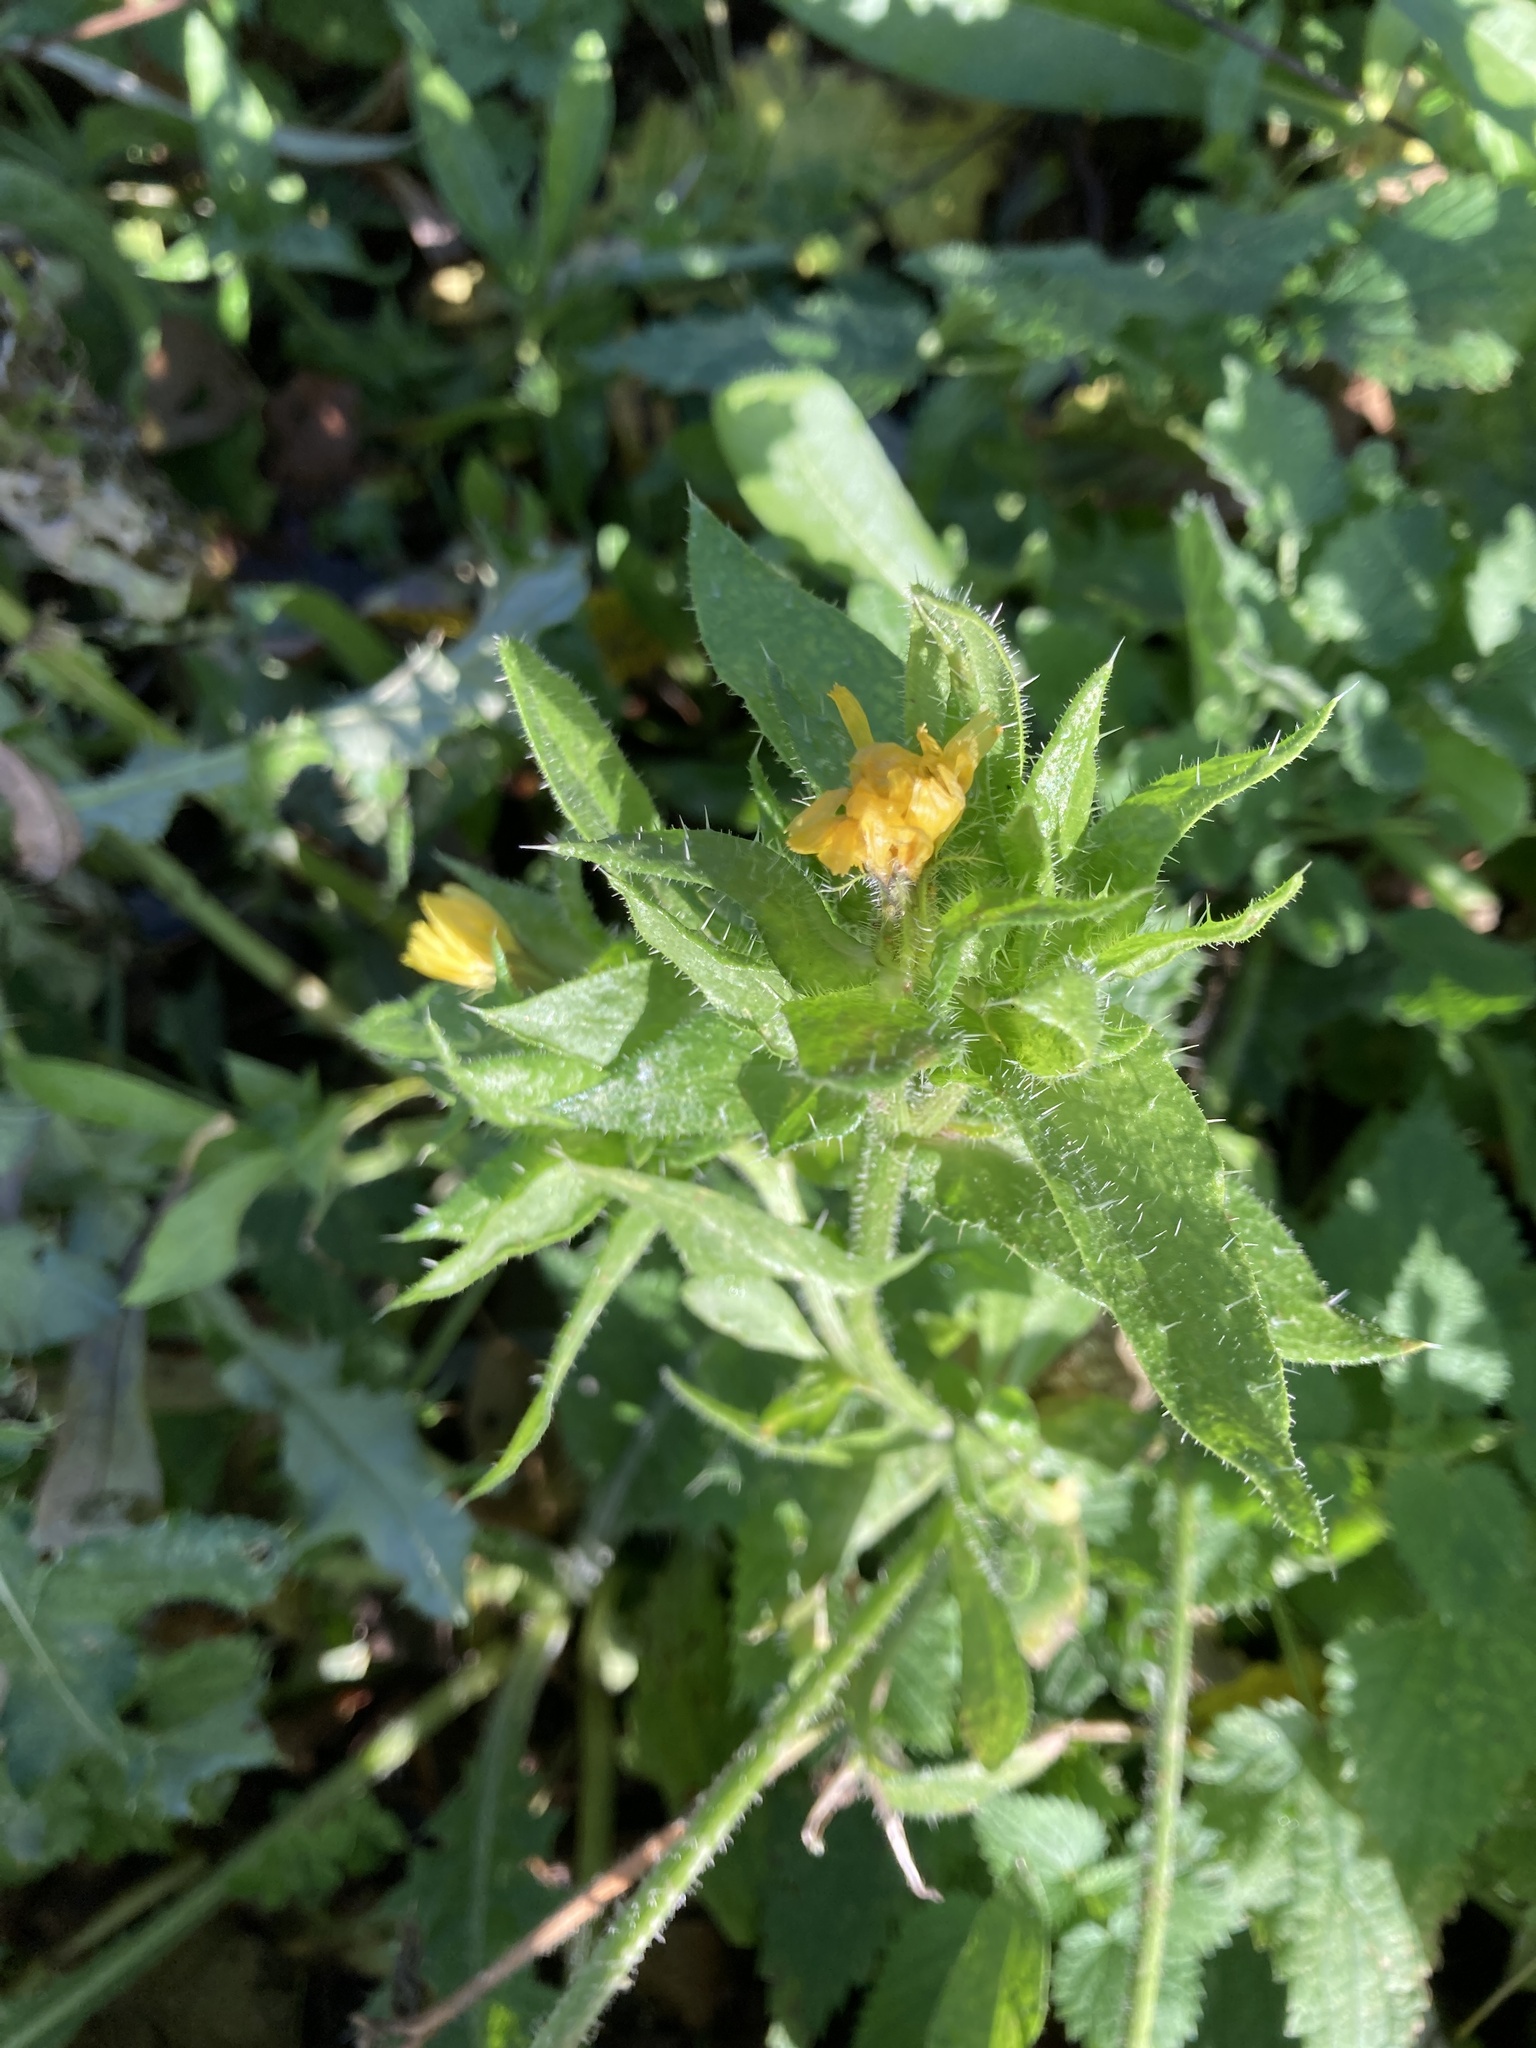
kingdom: Plantae
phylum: Tracheophyta
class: Magnoliopsida
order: Asterales
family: Asteraceae
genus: Helminthotheca
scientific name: Helminthotheca echioides
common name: Ox-tongue
